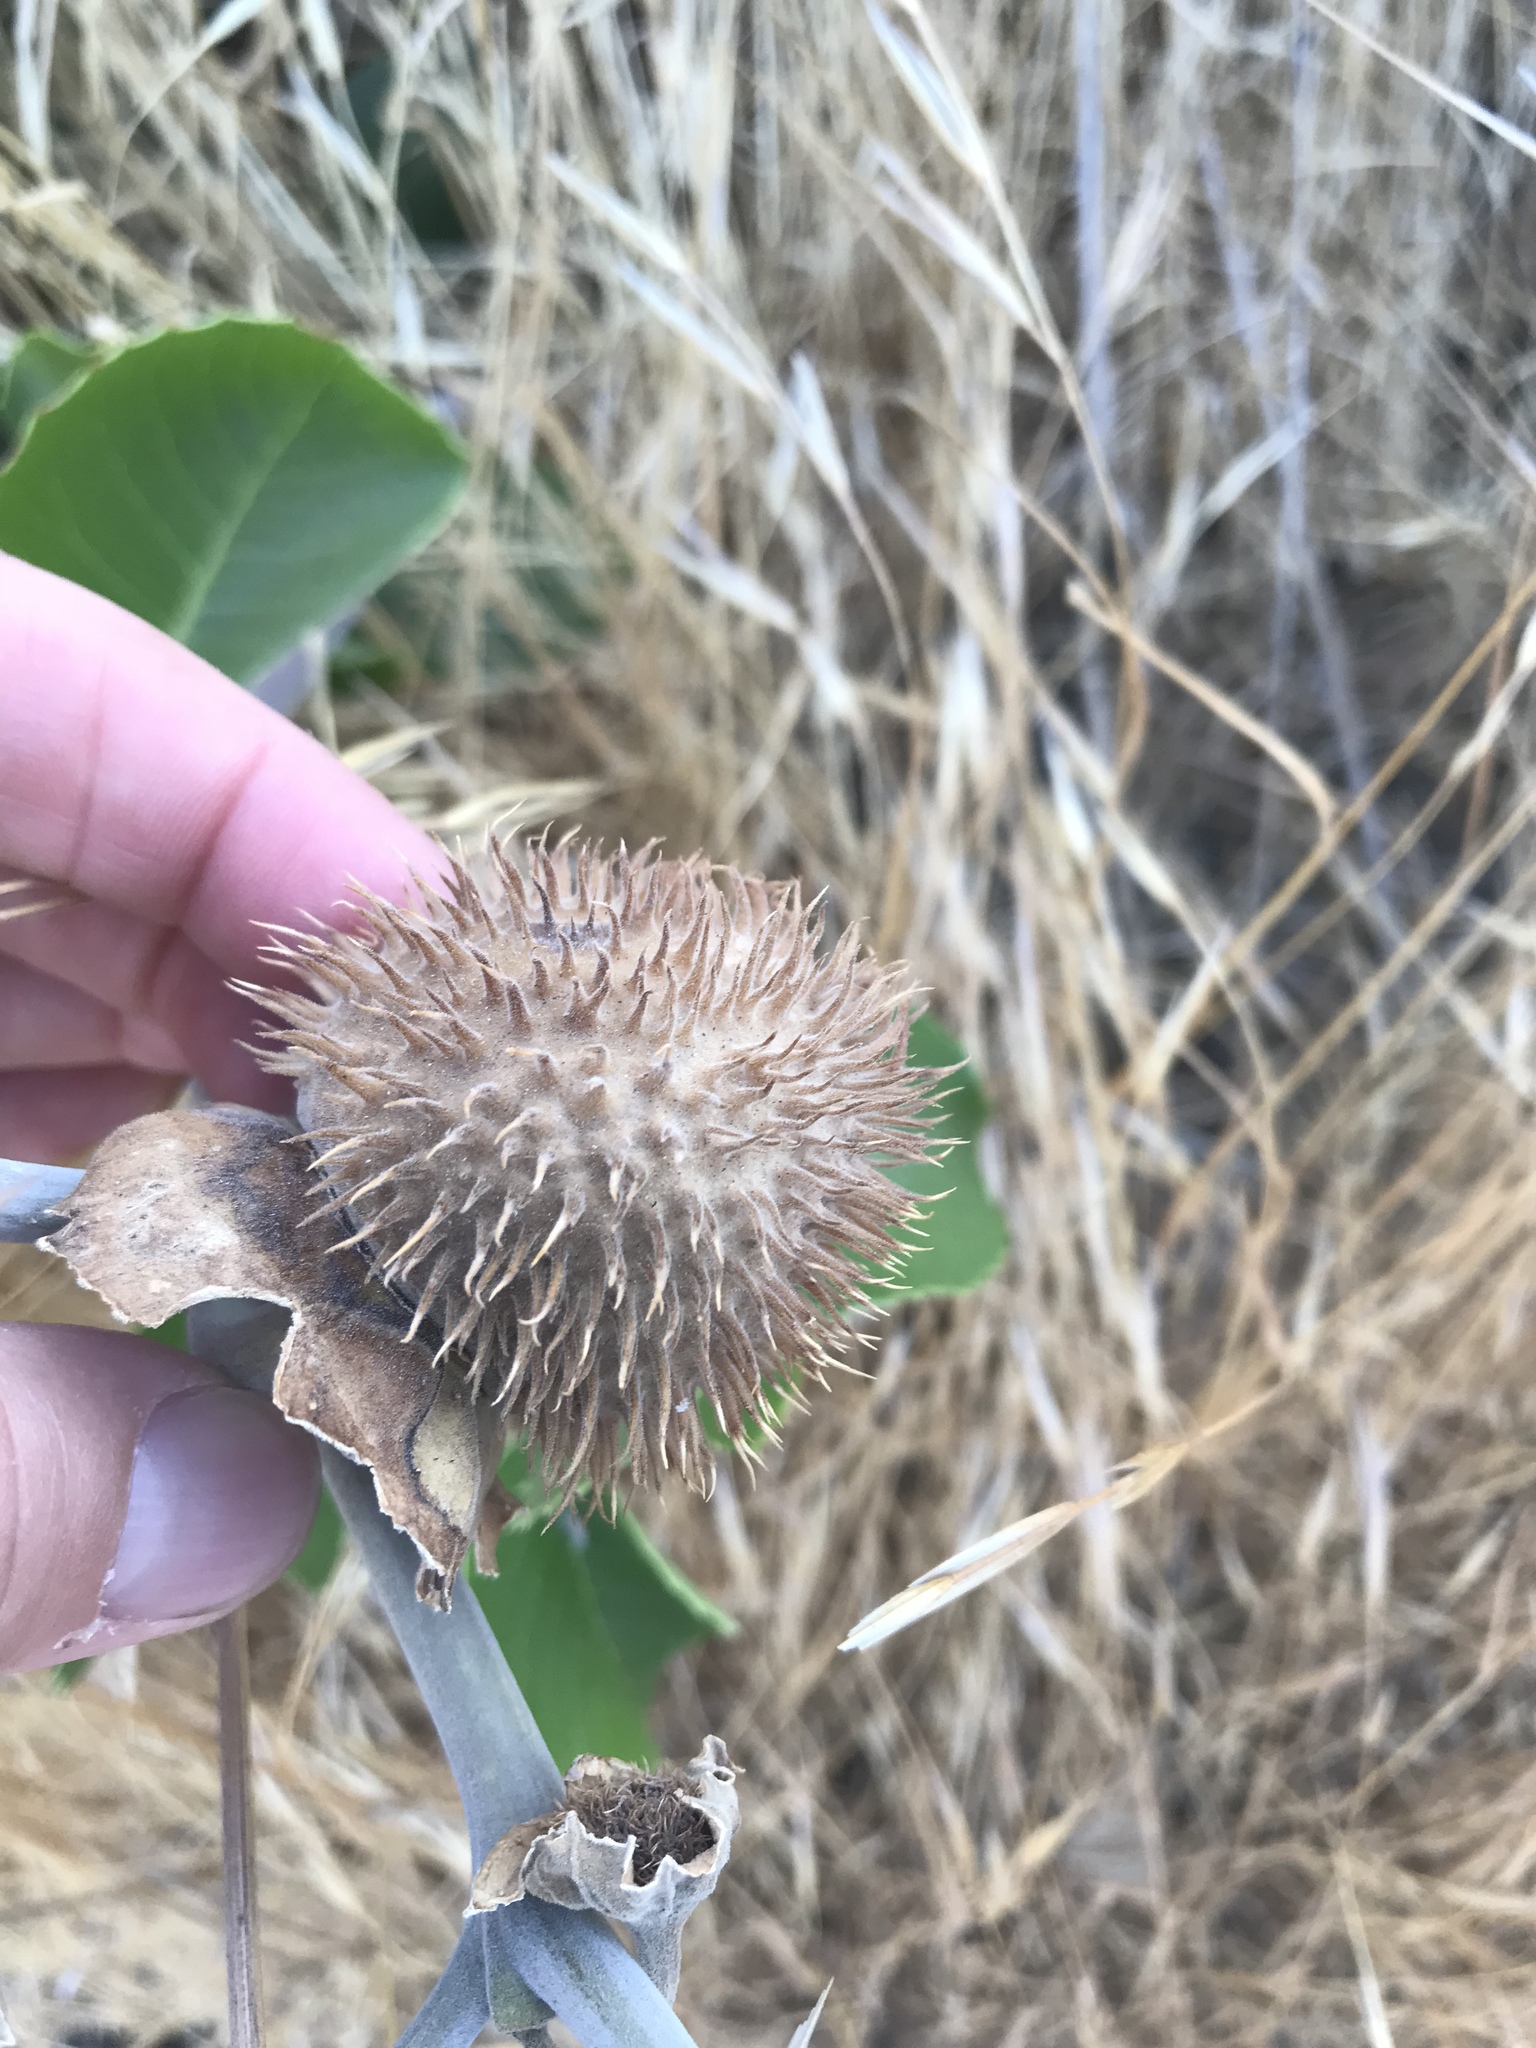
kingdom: Plantae
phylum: Tracheophyta
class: Magnoliopsida
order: Solanales
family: Solanaceae
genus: Datura
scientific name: Datura wrightii
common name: Sacred thorn-apple
